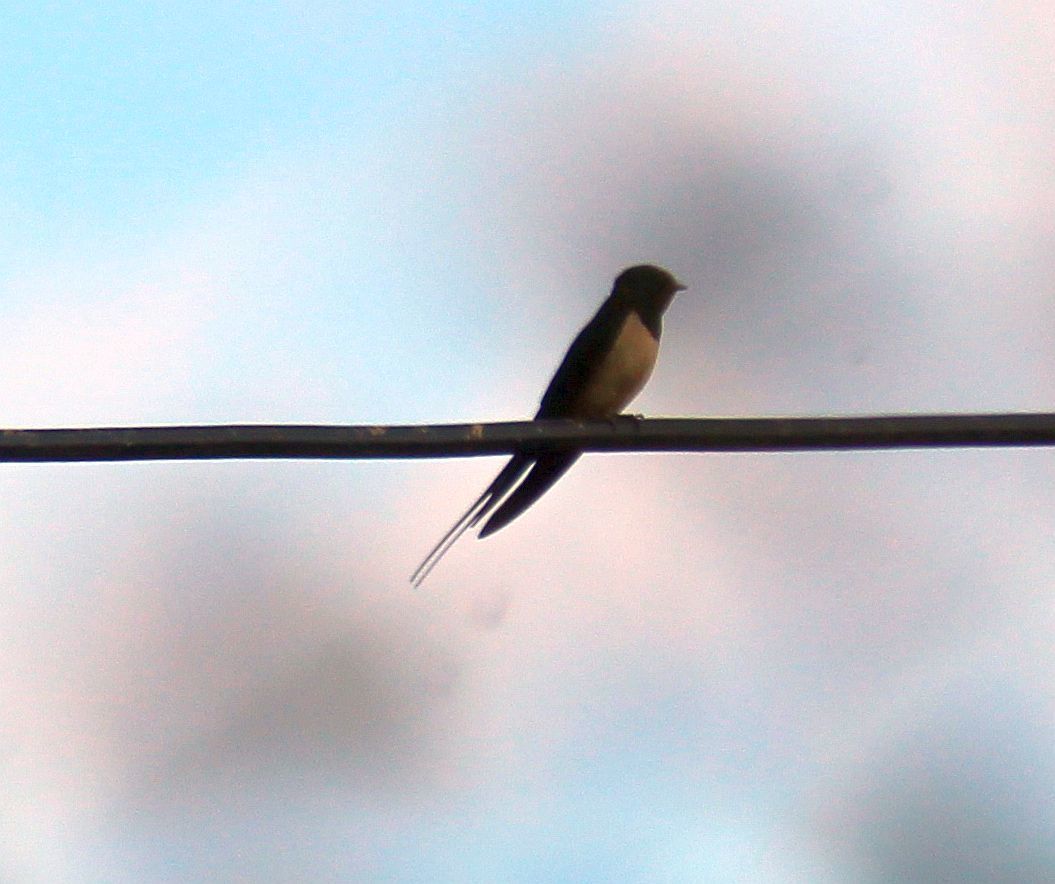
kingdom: Animalia
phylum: Chordata
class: Aves
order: Passeriformes
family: Hirundinidae
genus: Hirundo
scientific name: Hirundo rustica
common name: Barn swallow
